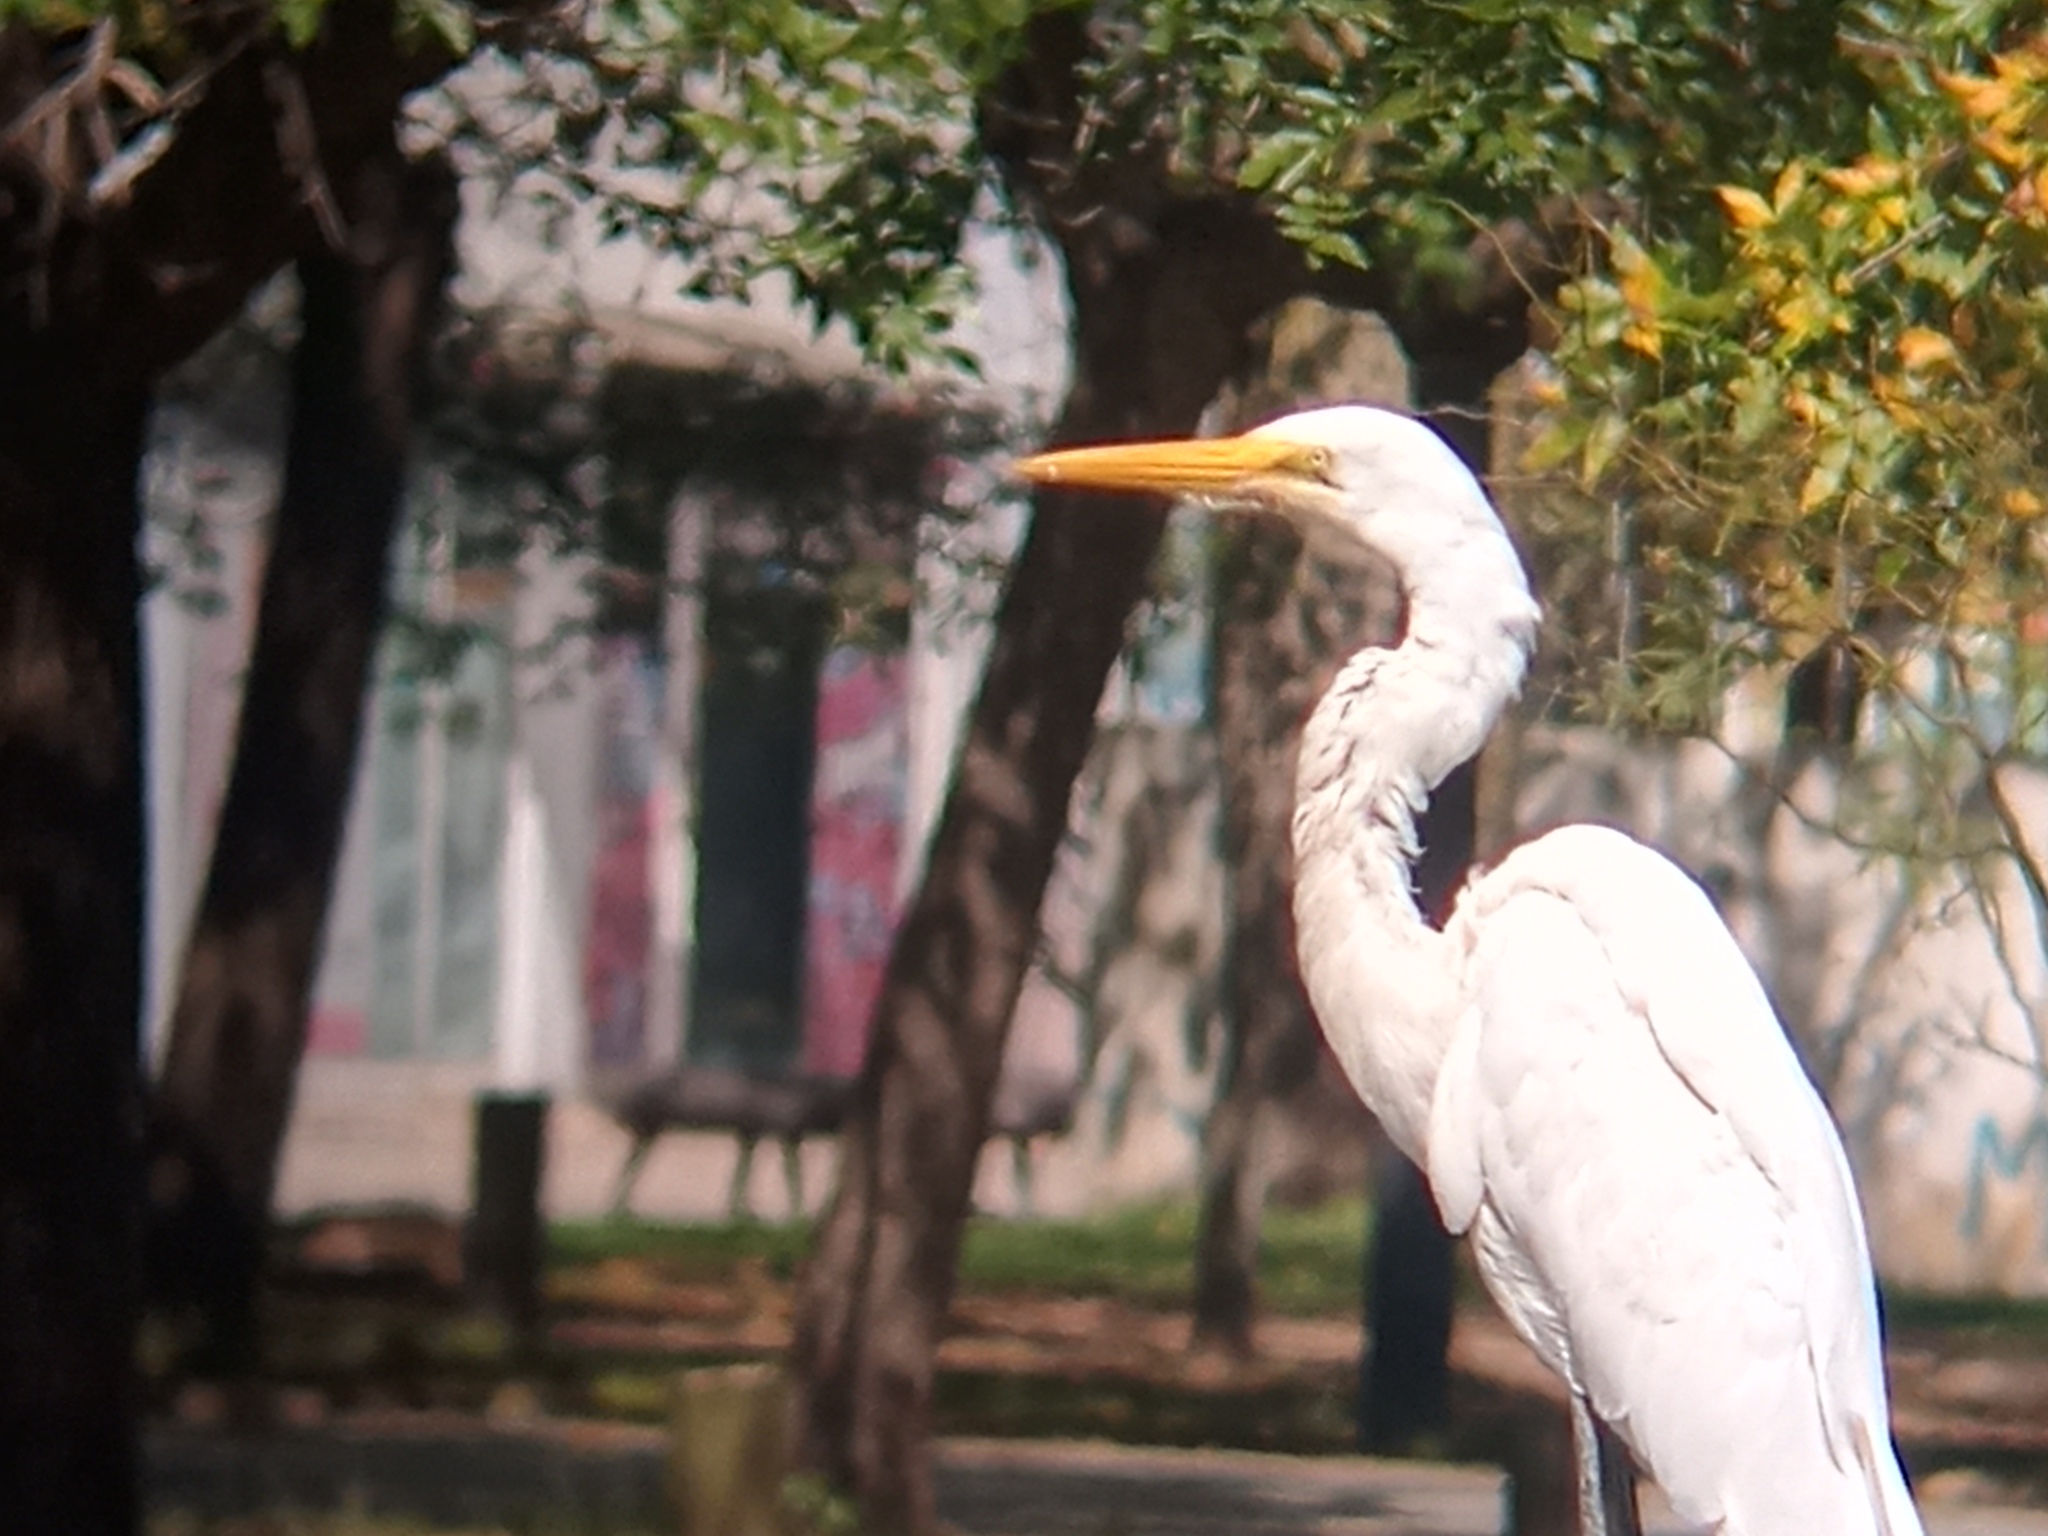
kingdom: Animalia
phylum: Chordata
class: Aves
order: Pelecaniformes
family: Ardeidae
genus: Ardea
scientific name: Ardea alba
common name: Great egret
